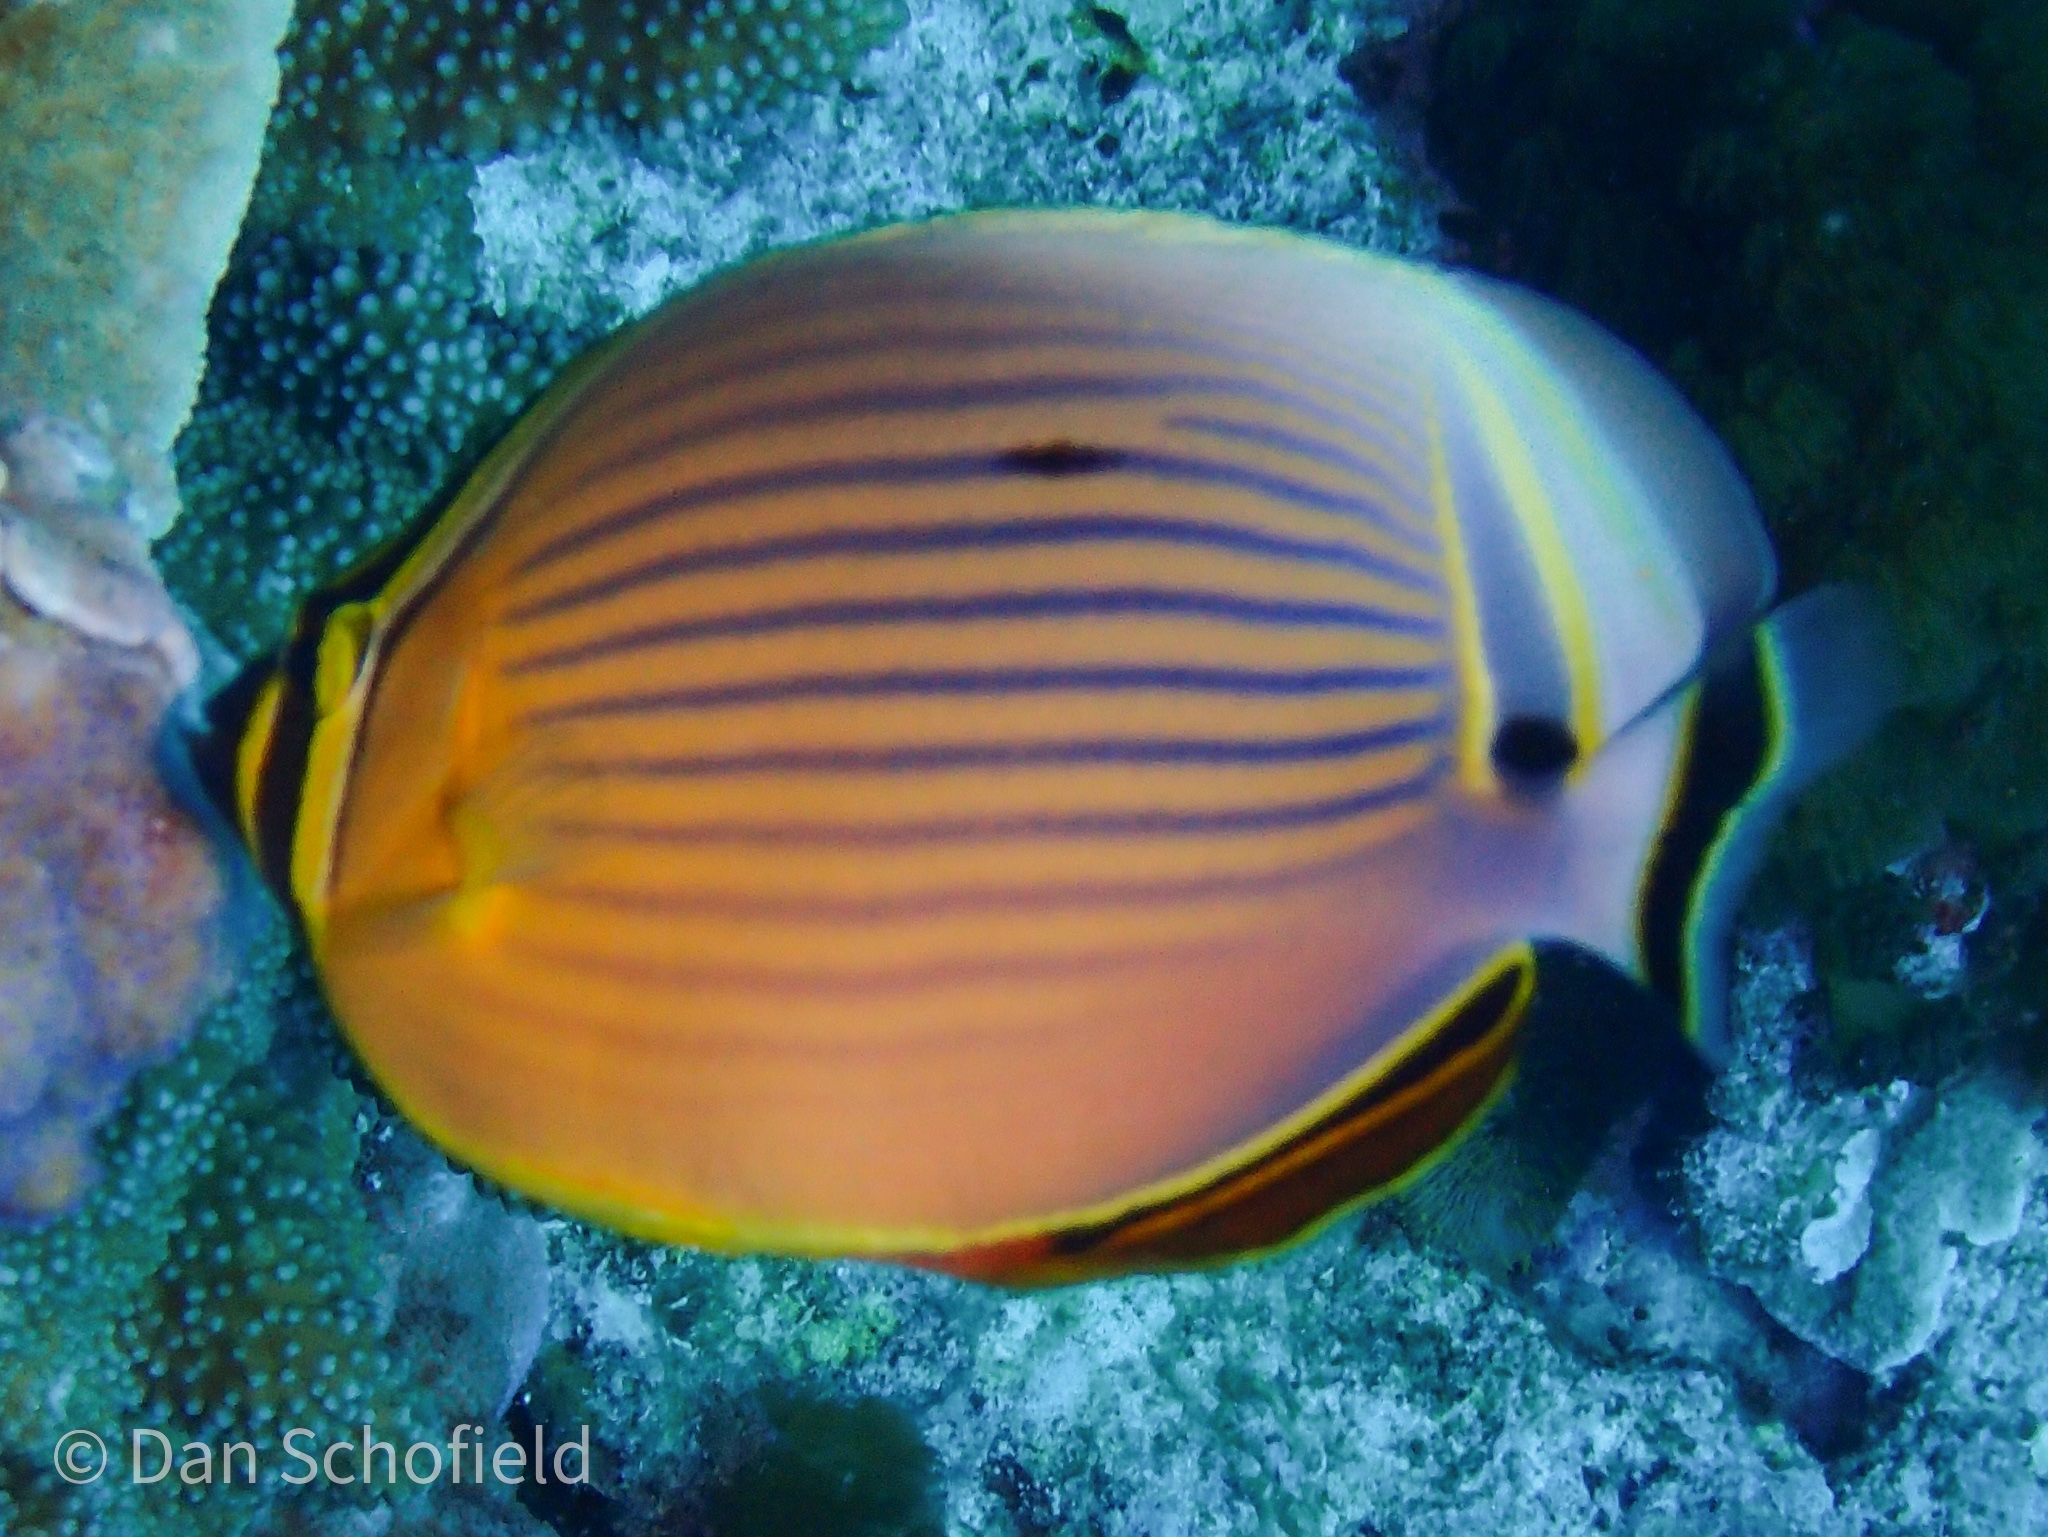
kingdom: Animalia
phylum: Chordata
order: Perciformes
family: Chaetodontidae
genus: Chaetodon
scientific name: Chaetodon lunulatus
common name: Redfin butterflyfish
